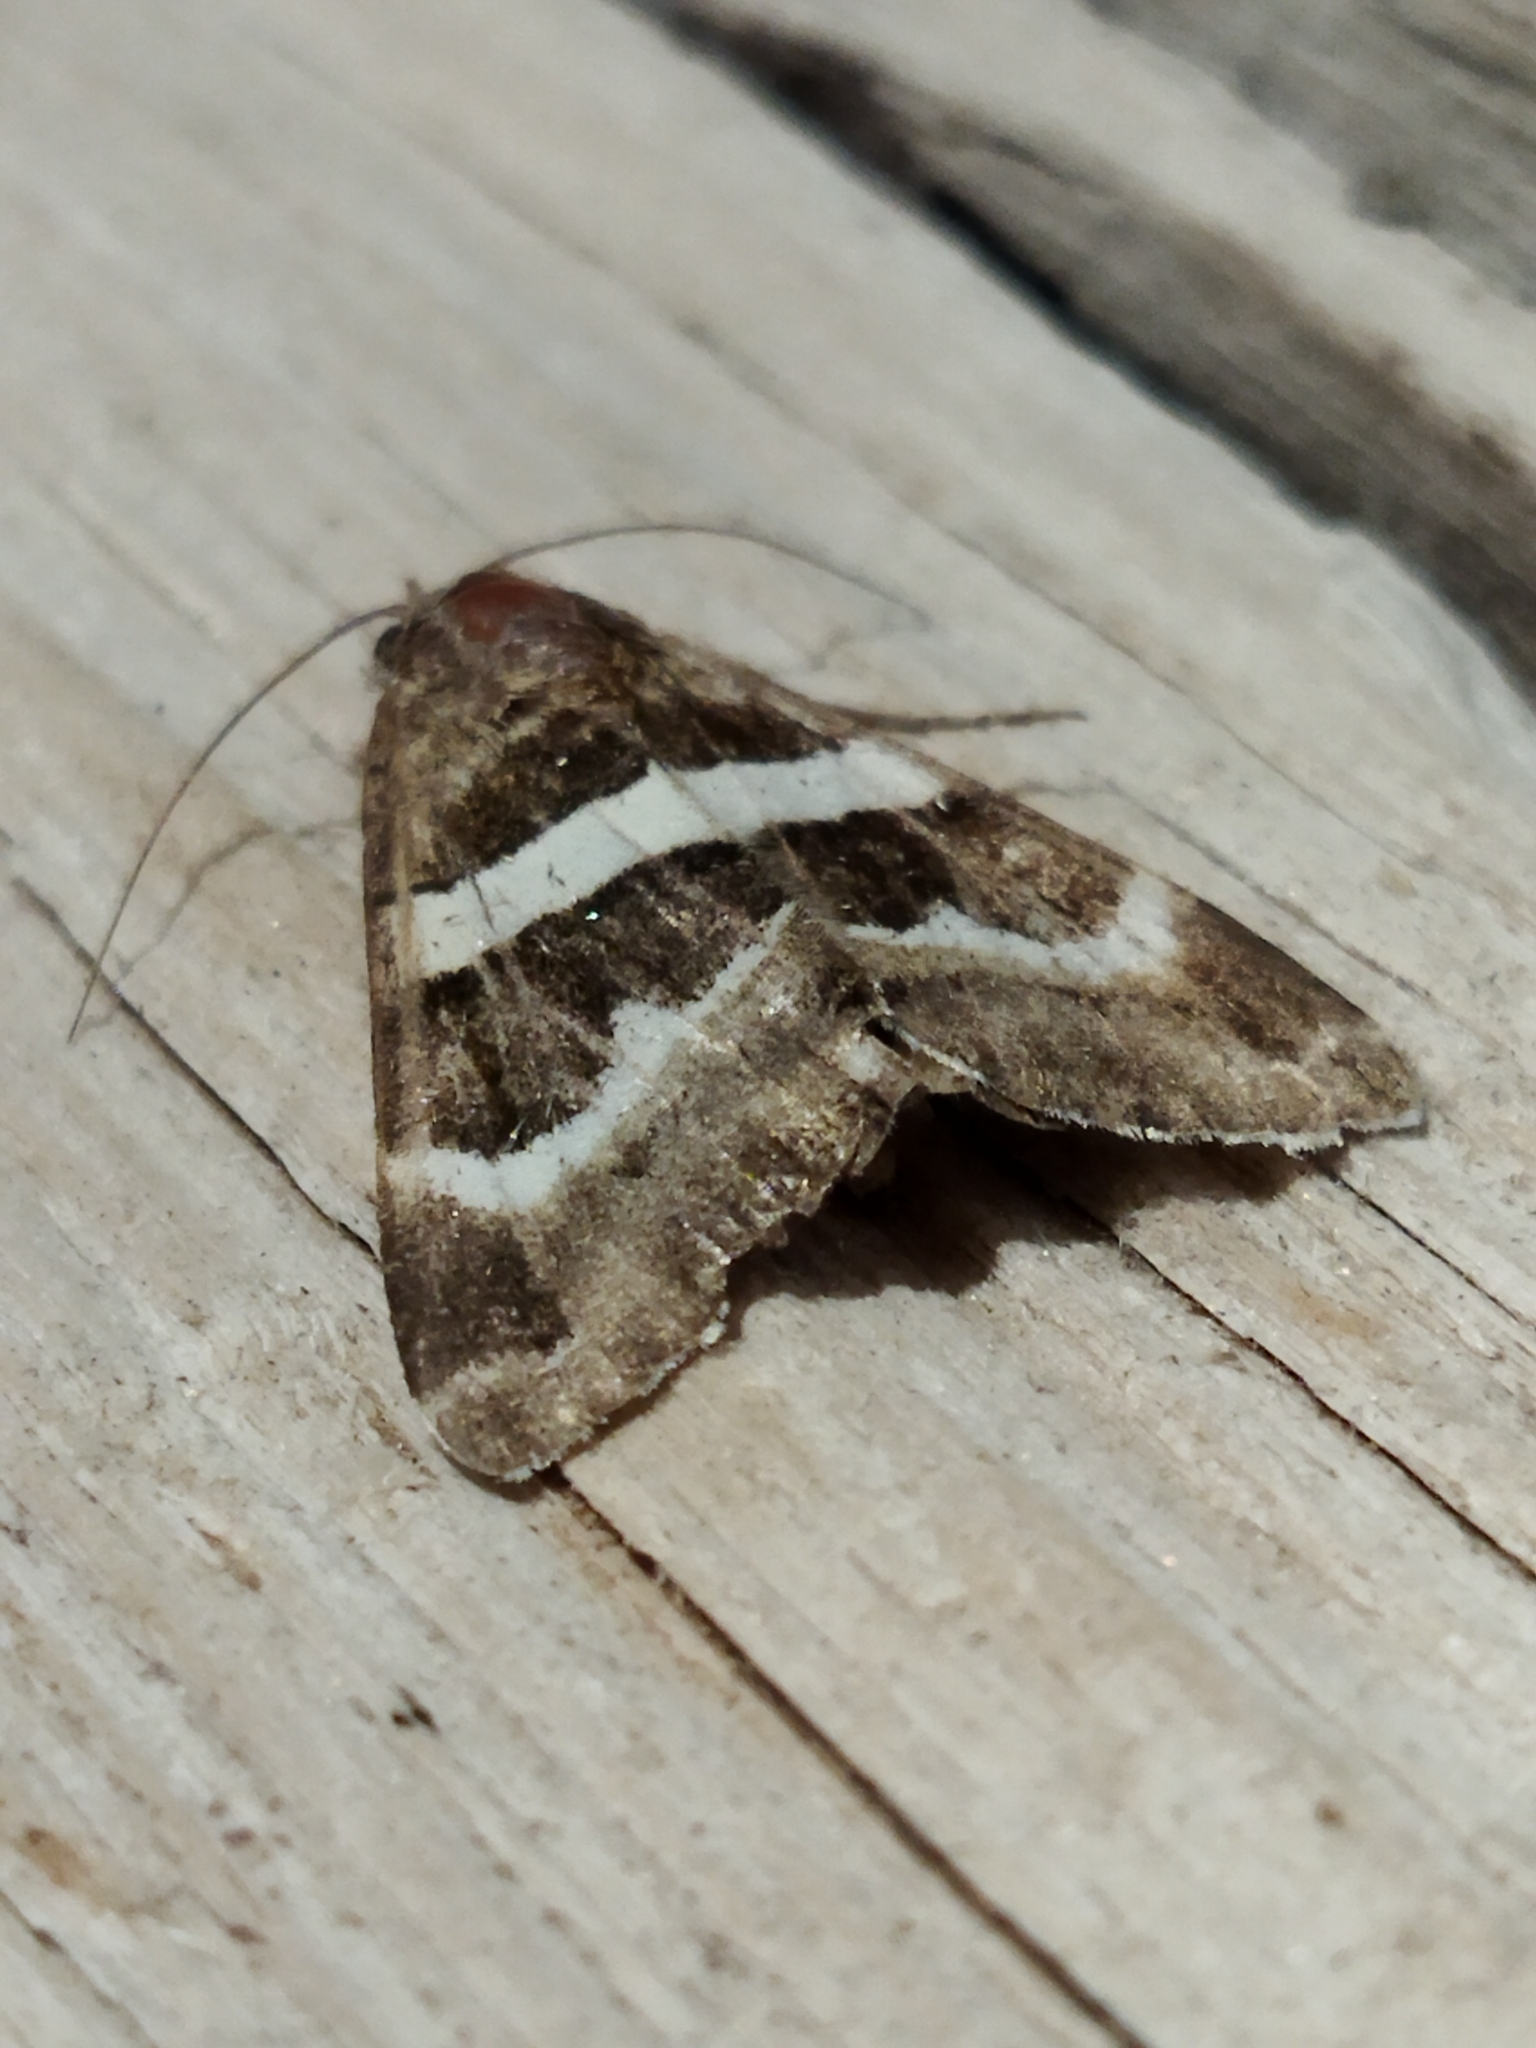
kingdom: Animalia
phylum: Arthropoda
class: Insecta
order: Lepidoptera
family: Erebidae
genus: Grammodes
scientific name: Grammodes stolida
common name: Geometrician
